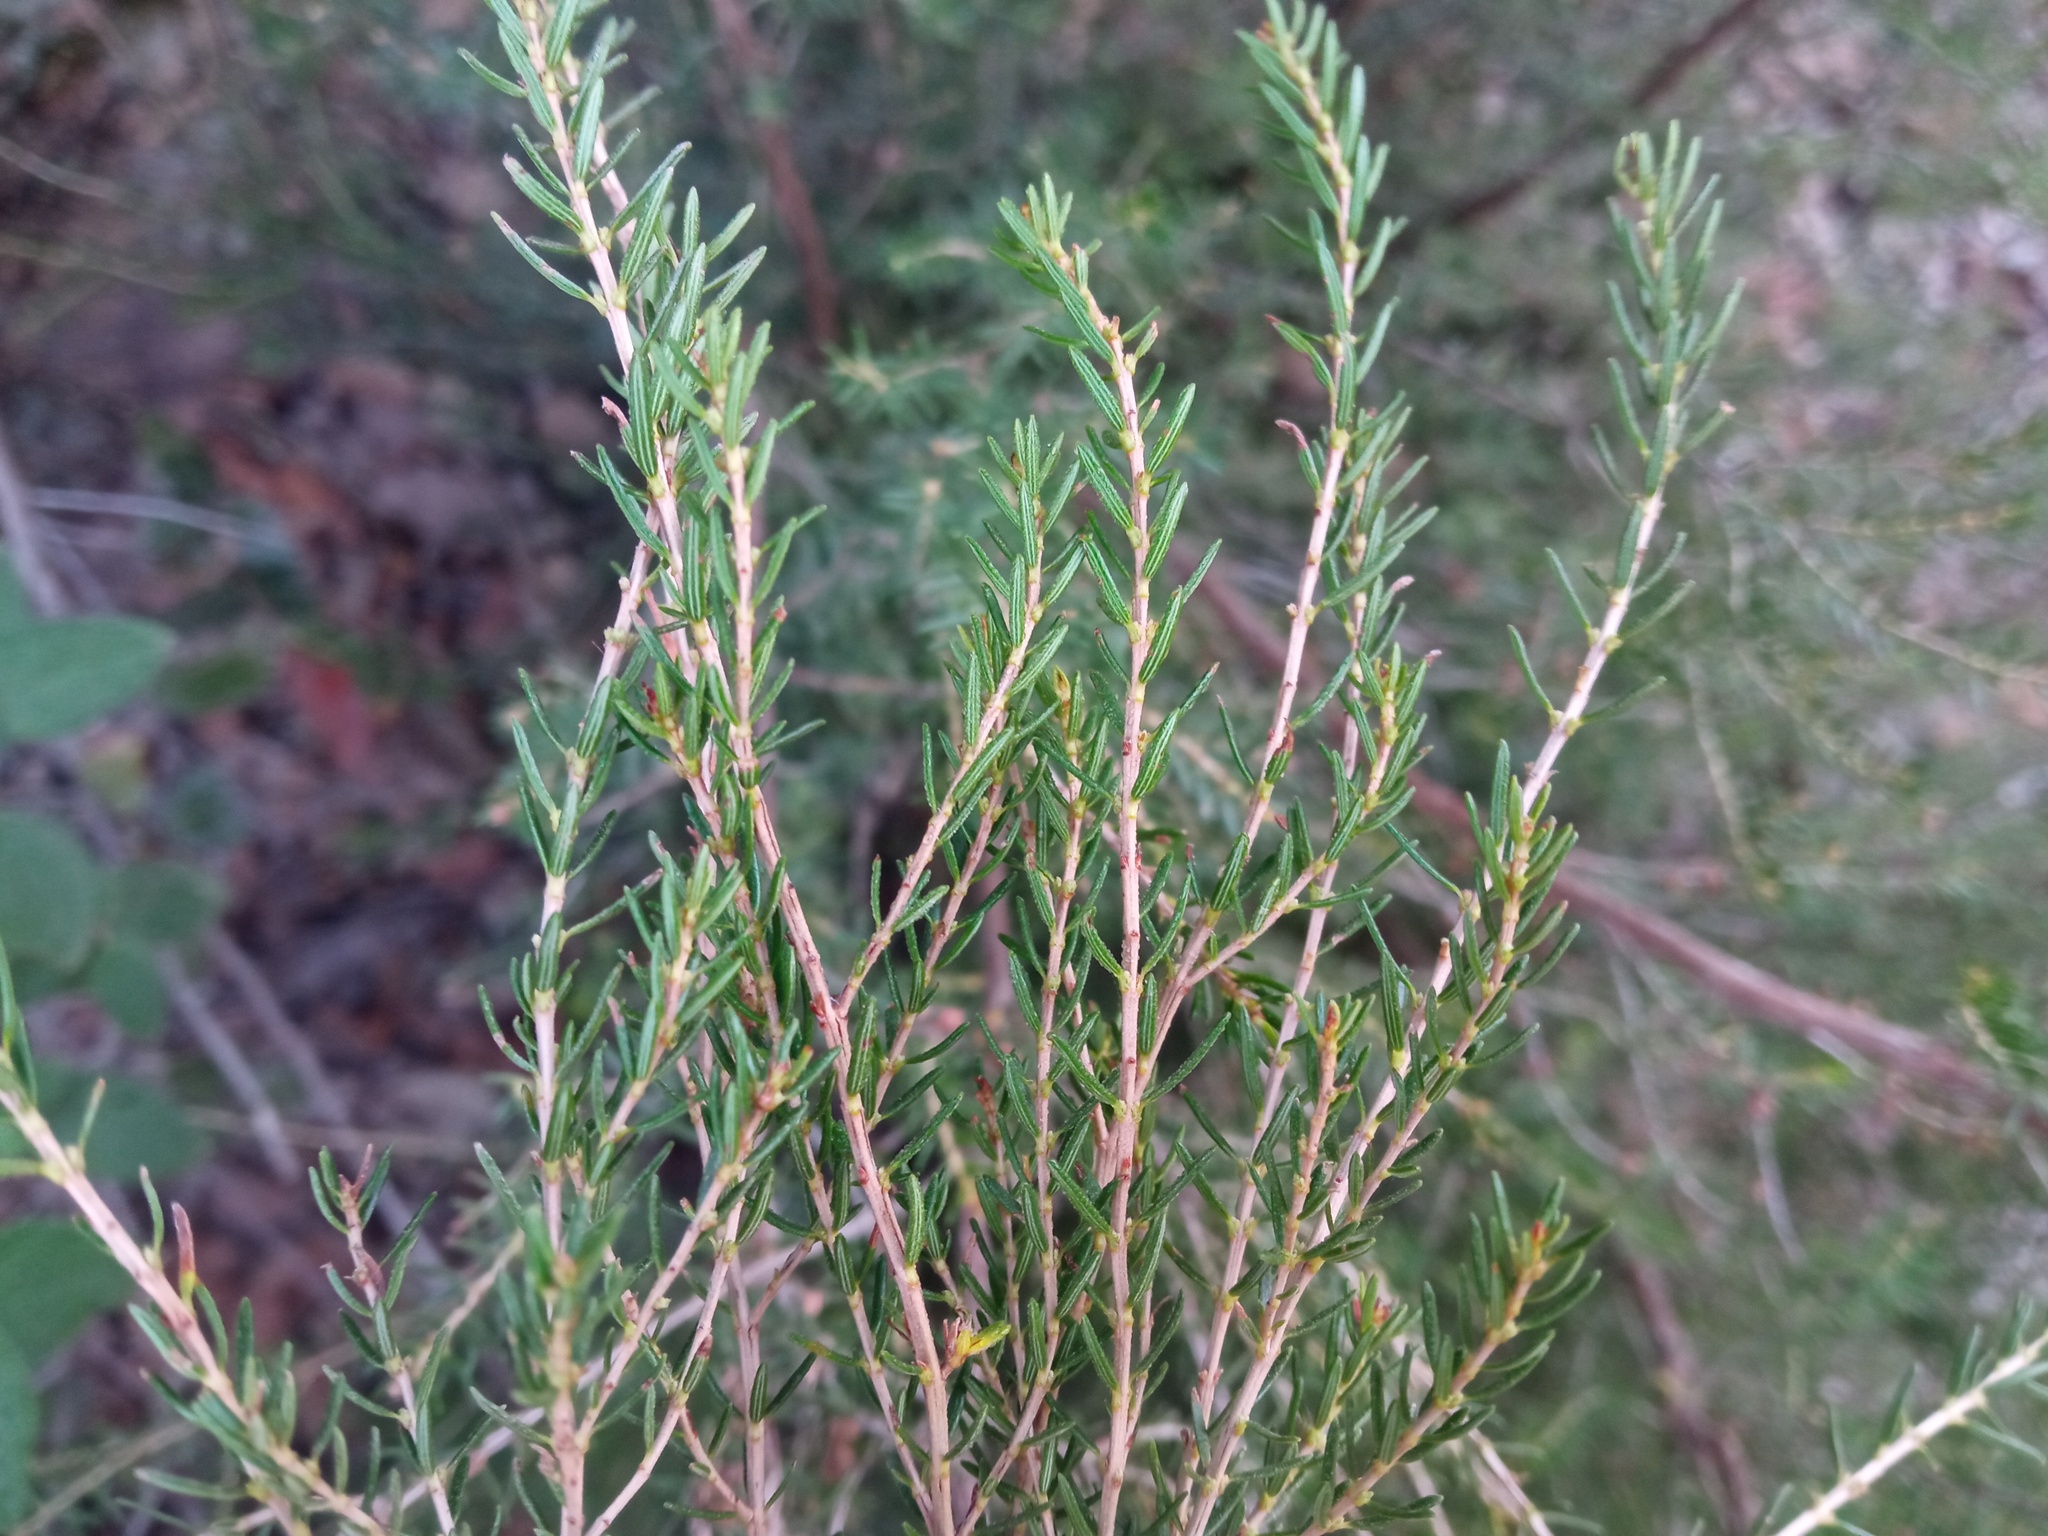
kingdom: Plantae
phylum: Tracheophyta
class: Magnoliopsida
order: Ericales
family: Ericaceae
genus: Erica
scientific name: Erica scoparia
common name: Green heather
